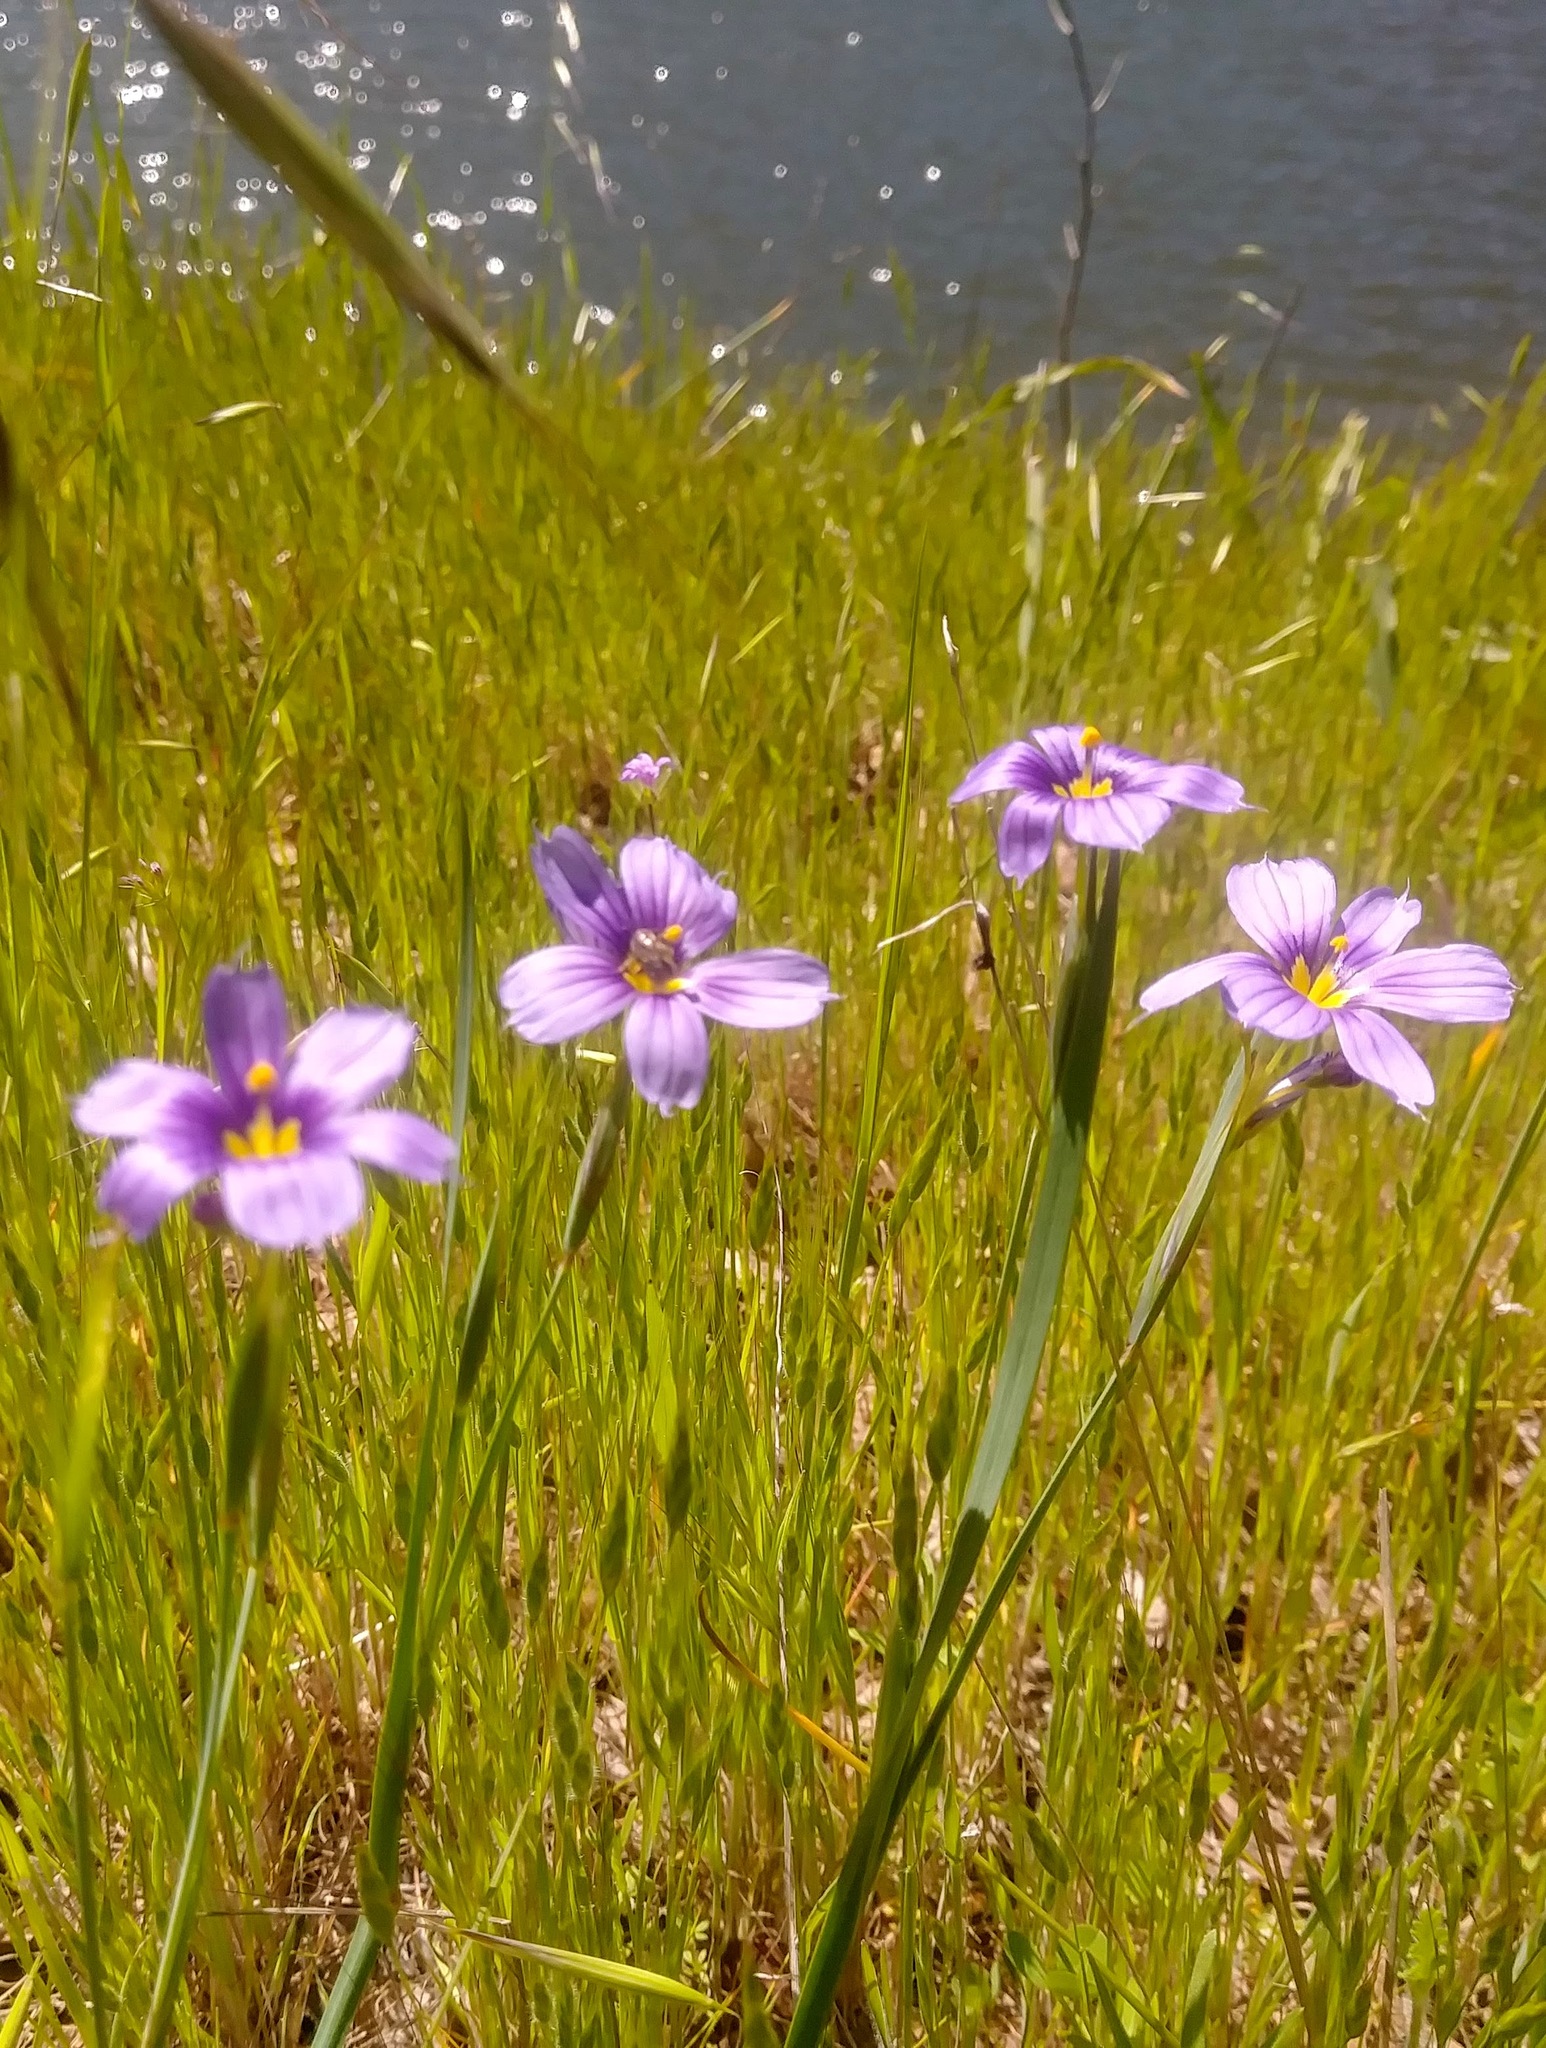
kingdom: Plantae
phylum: Tracheophyta
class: Liliopsida
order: Asparagales
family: Iridaceae
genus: Sisyrinchium
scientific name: Sisyrinchium bellum
